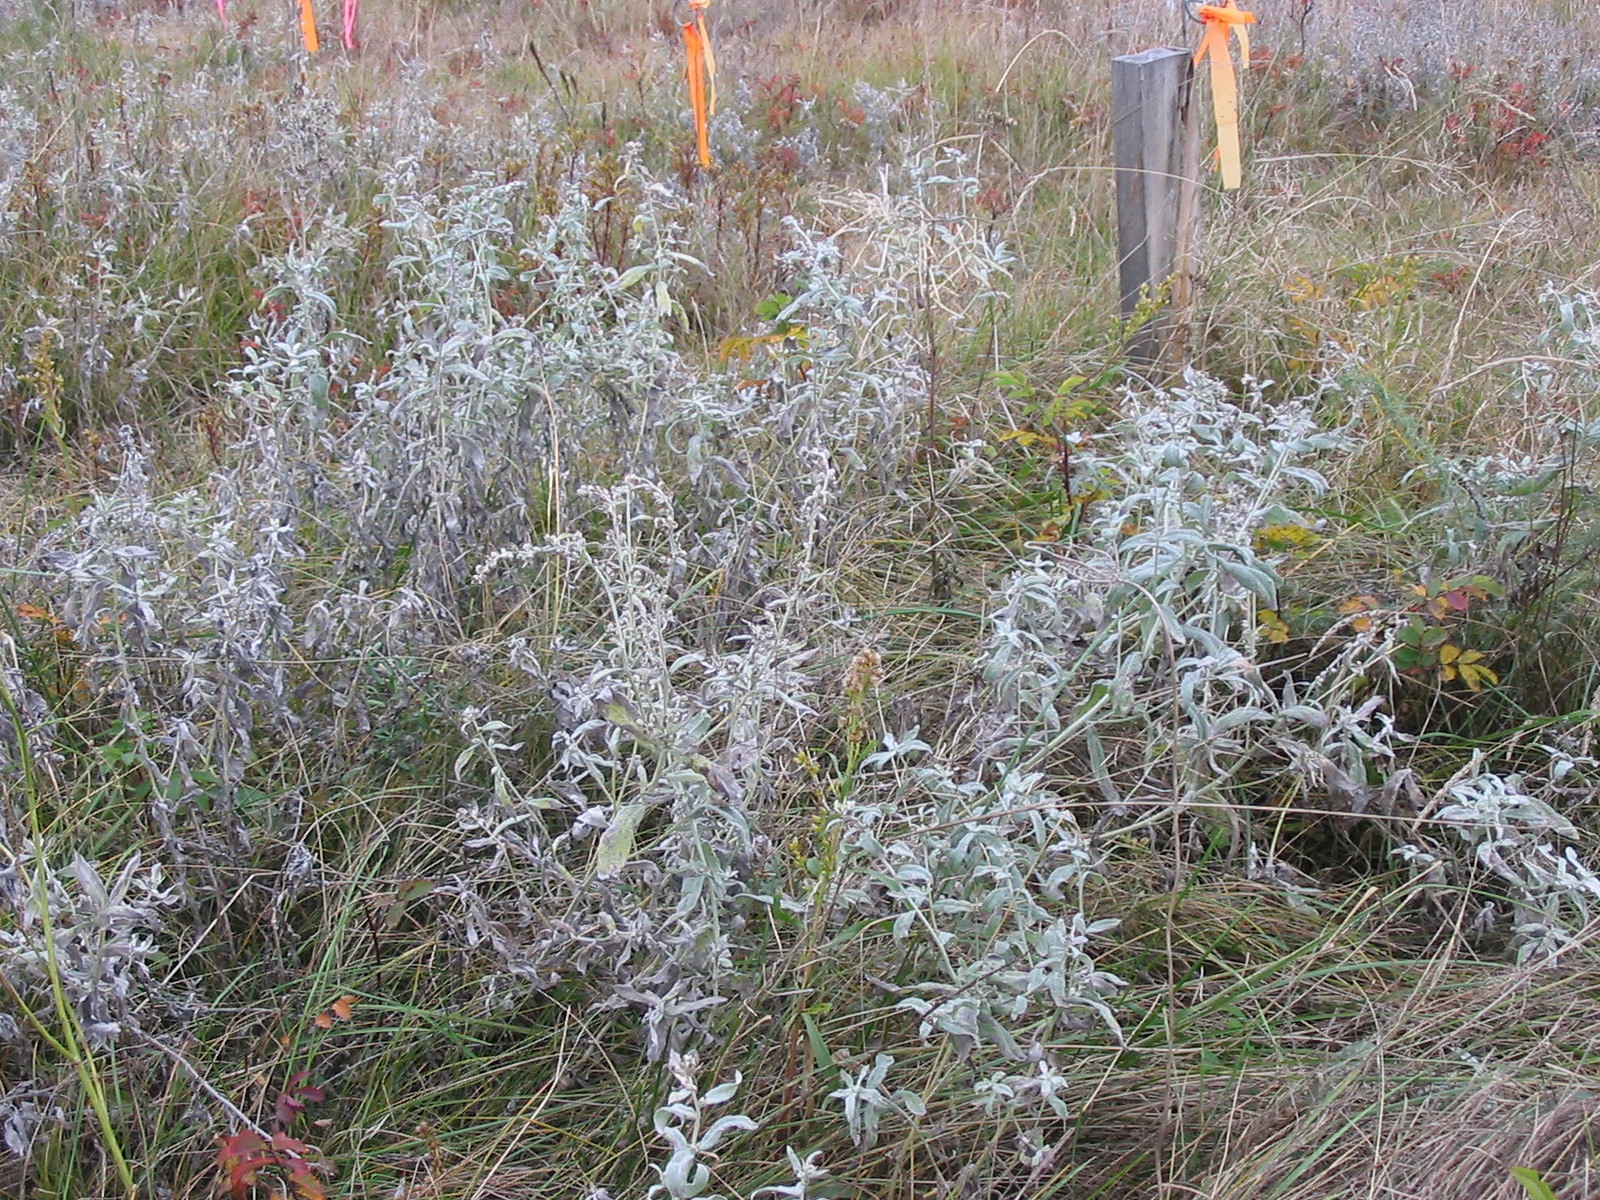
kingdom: Plantae
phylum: Tracheophyta
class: Magnoliopsida
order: Asterales
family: Asteraceae
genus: Artemisia
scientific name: Artemisia ludoviciana
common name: Western mugwort
